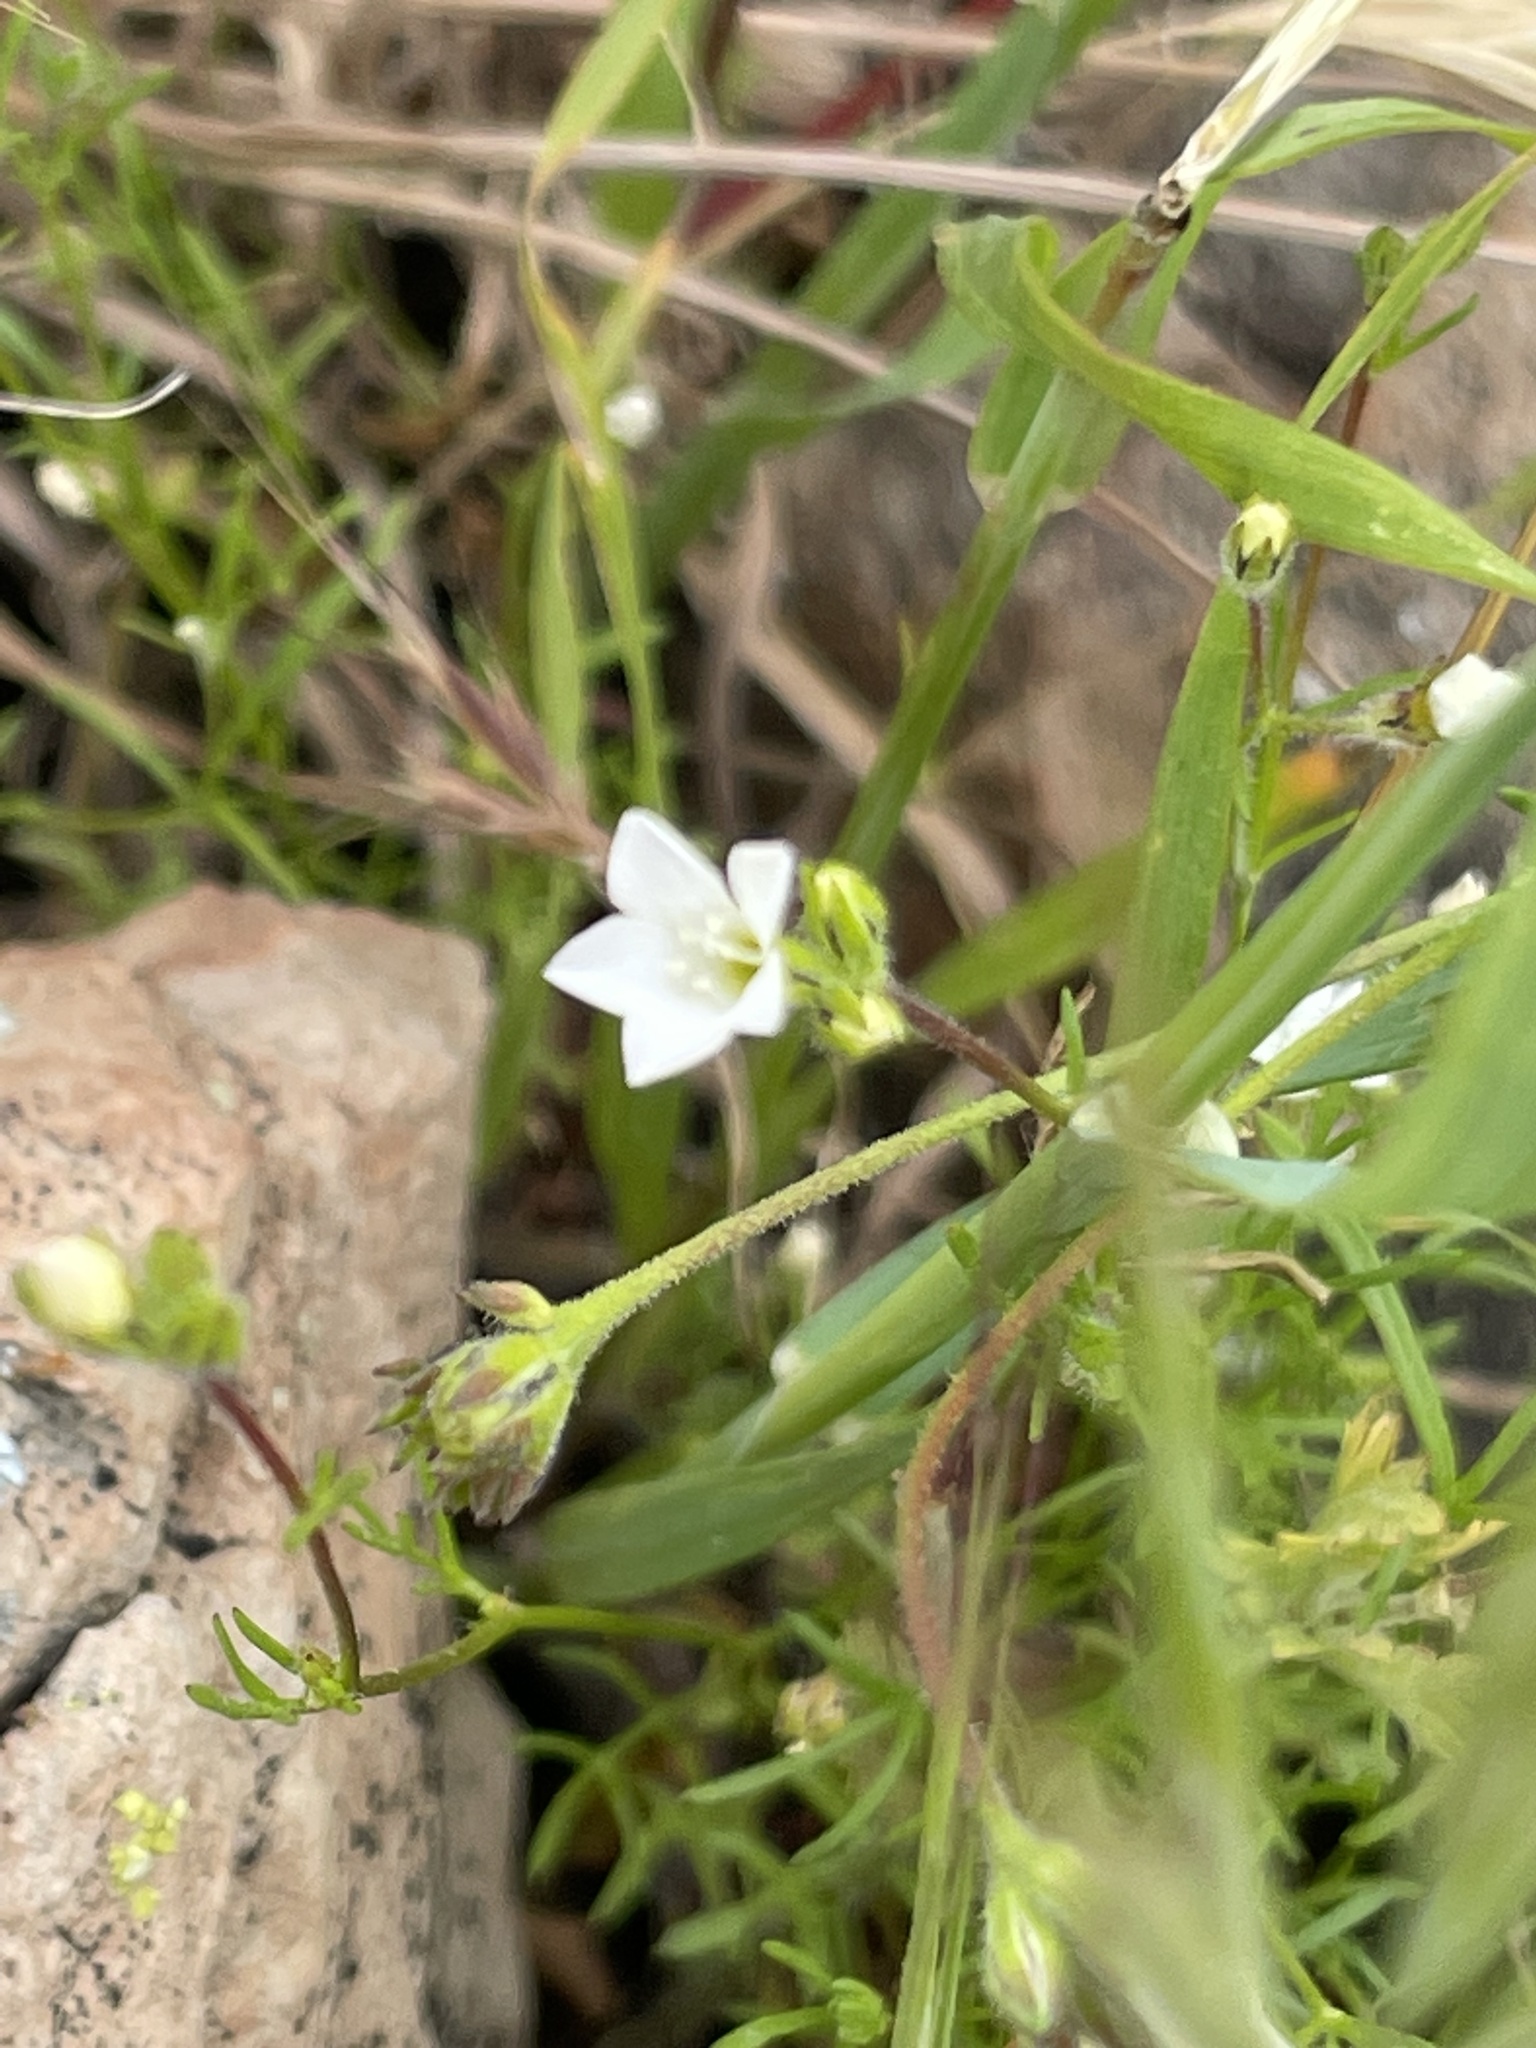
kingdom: Plantae
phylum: Tracheophyta
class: Magnoliopsida
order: Ericales
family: Polemoniaceae
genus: Gilia
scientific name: Gilia angelensis
